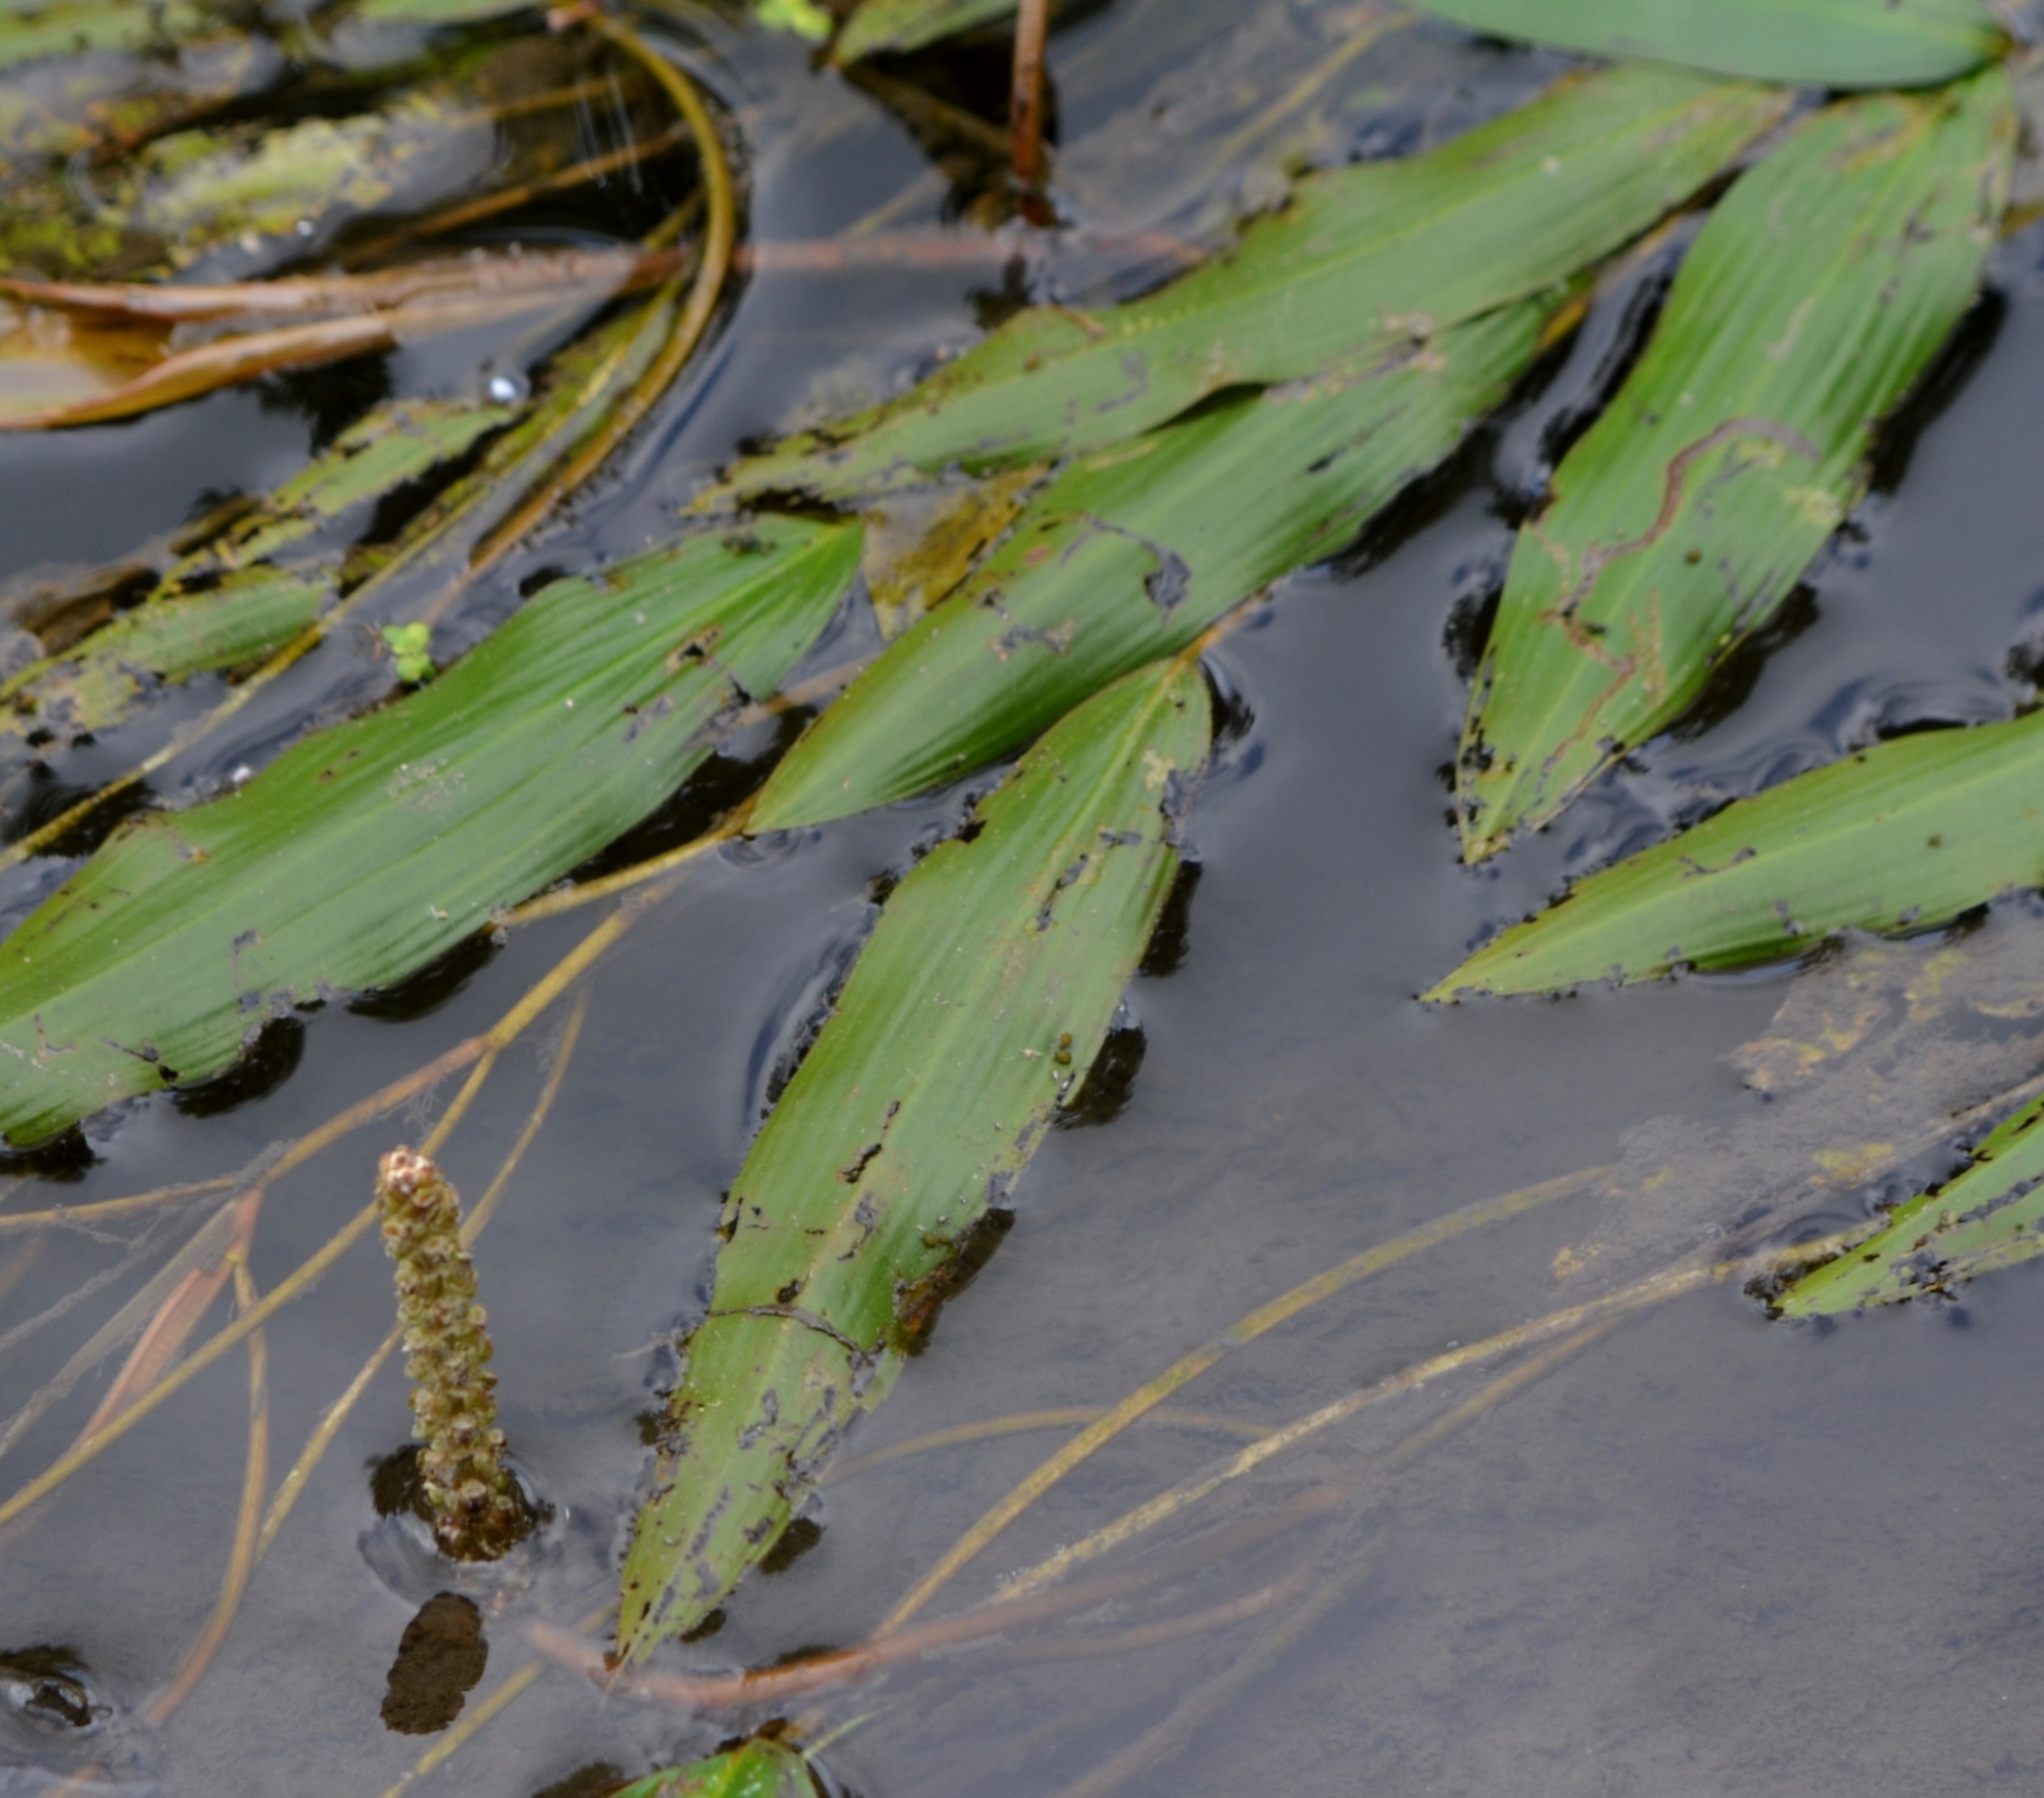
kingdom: Plantae
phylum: Tracheophyta
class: Liliopsida
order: Alismatales
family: Potamogetonaceae
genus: Potamogeton
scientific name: Potamogeton nodosus
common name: Loddon pondweed
